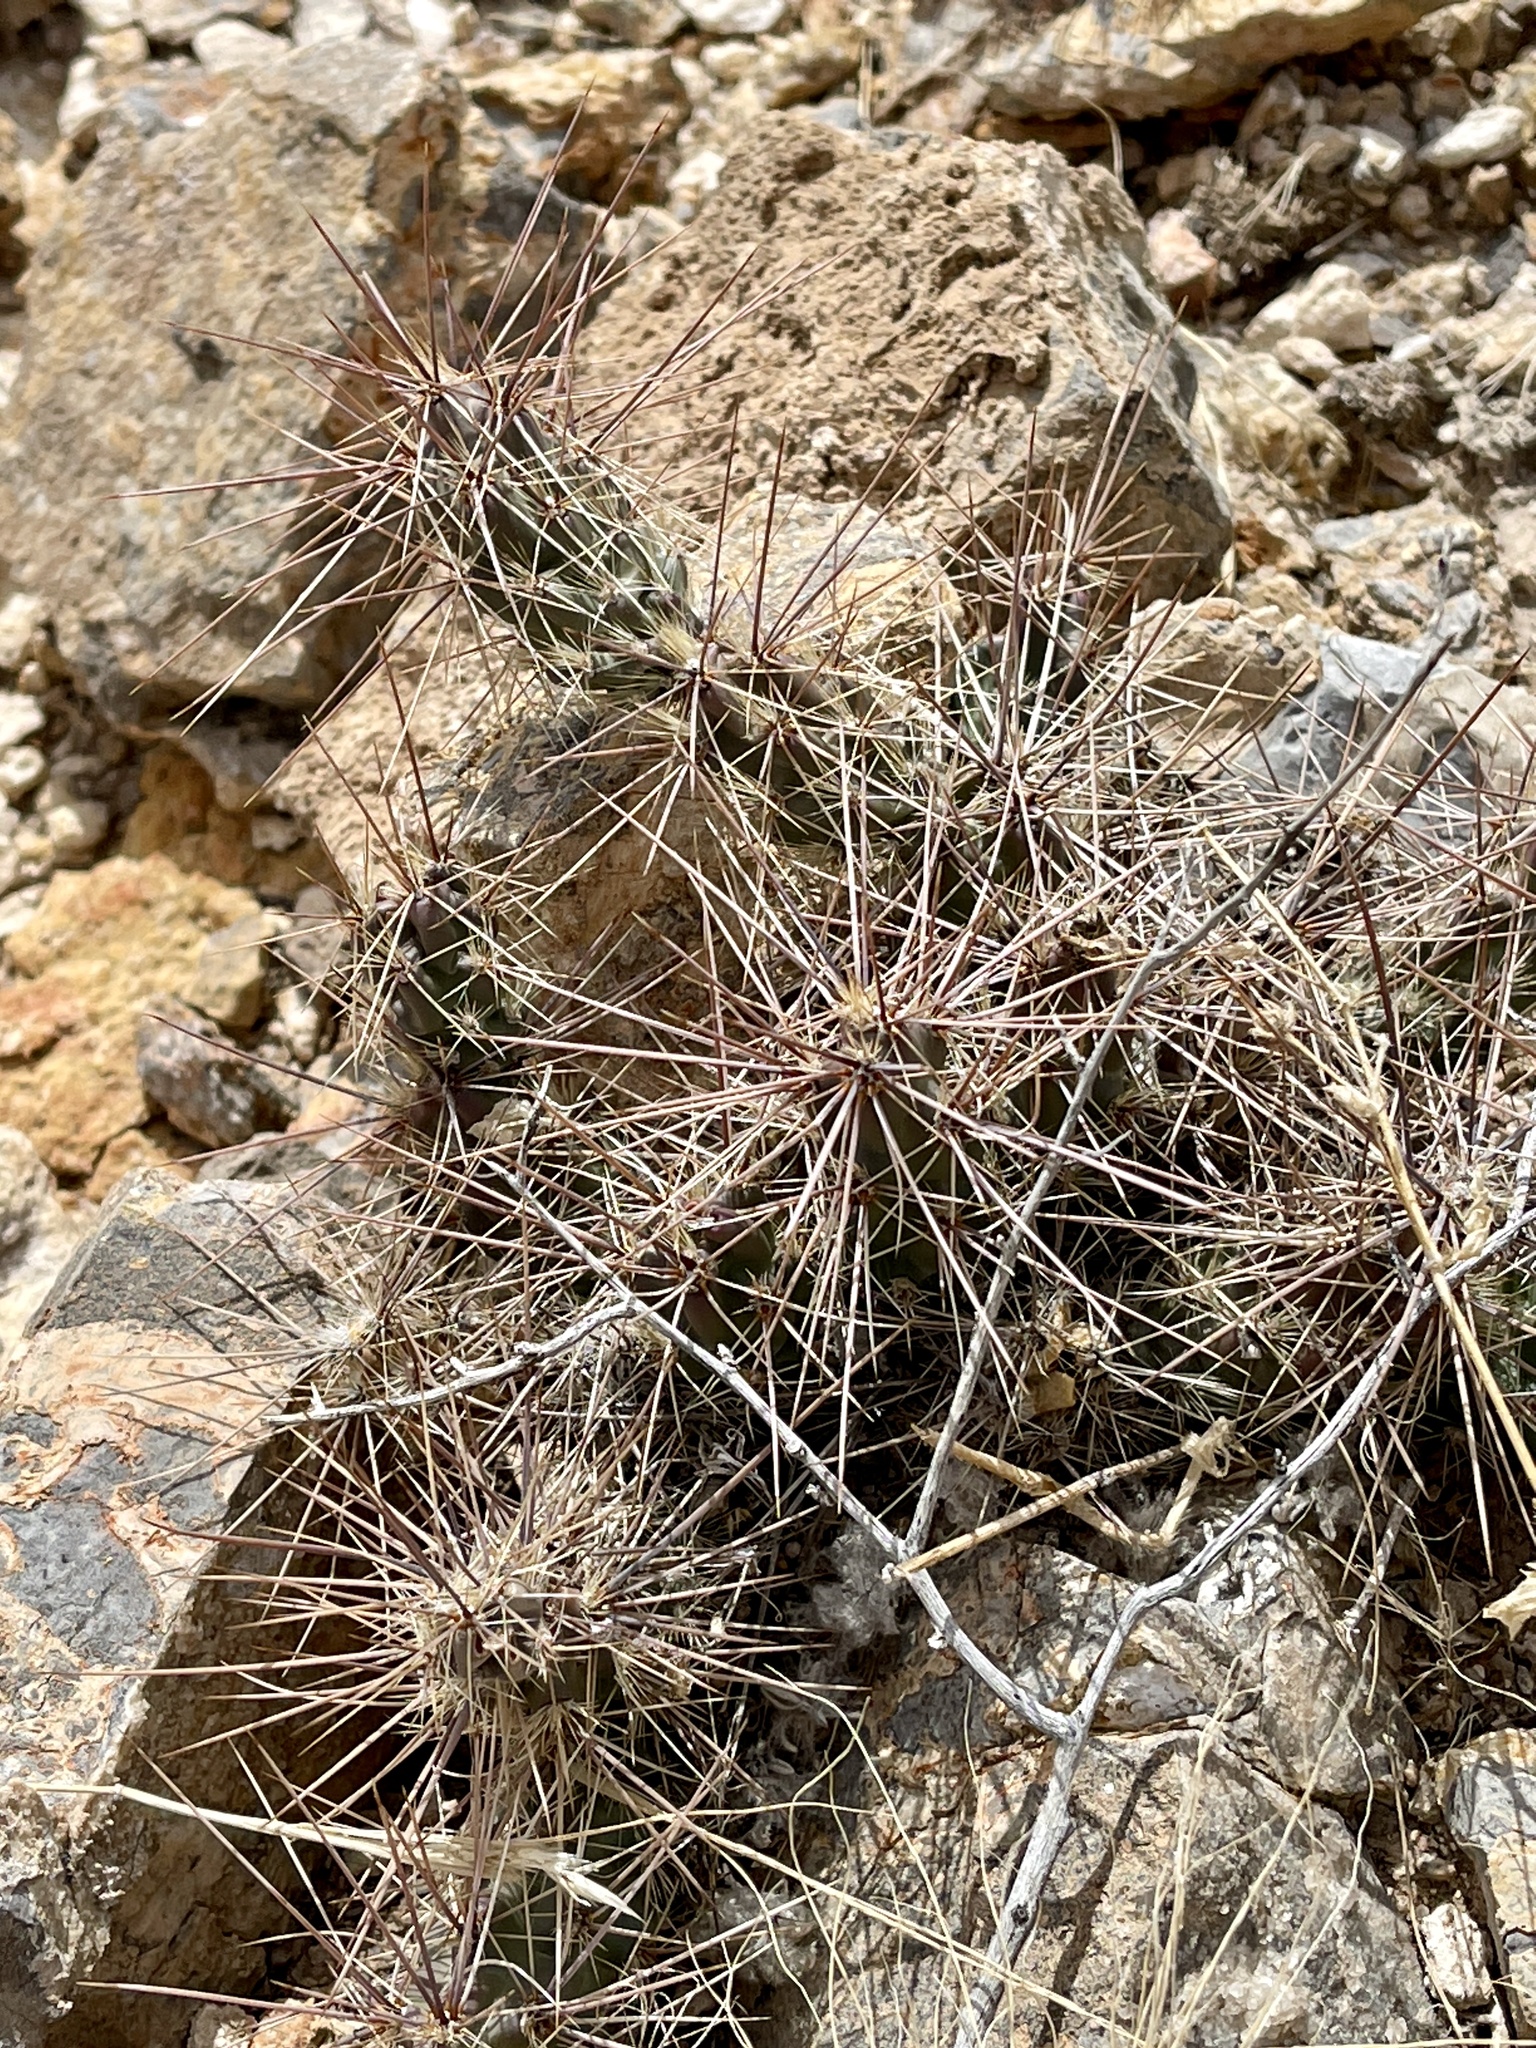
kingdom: Plantae
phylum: Tracheophyta
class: Magnoliopsida
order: Caryophyllales
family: Cactaceae
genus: Grusonia
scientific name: Grusonia grahamii
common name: Graham's club cactus
